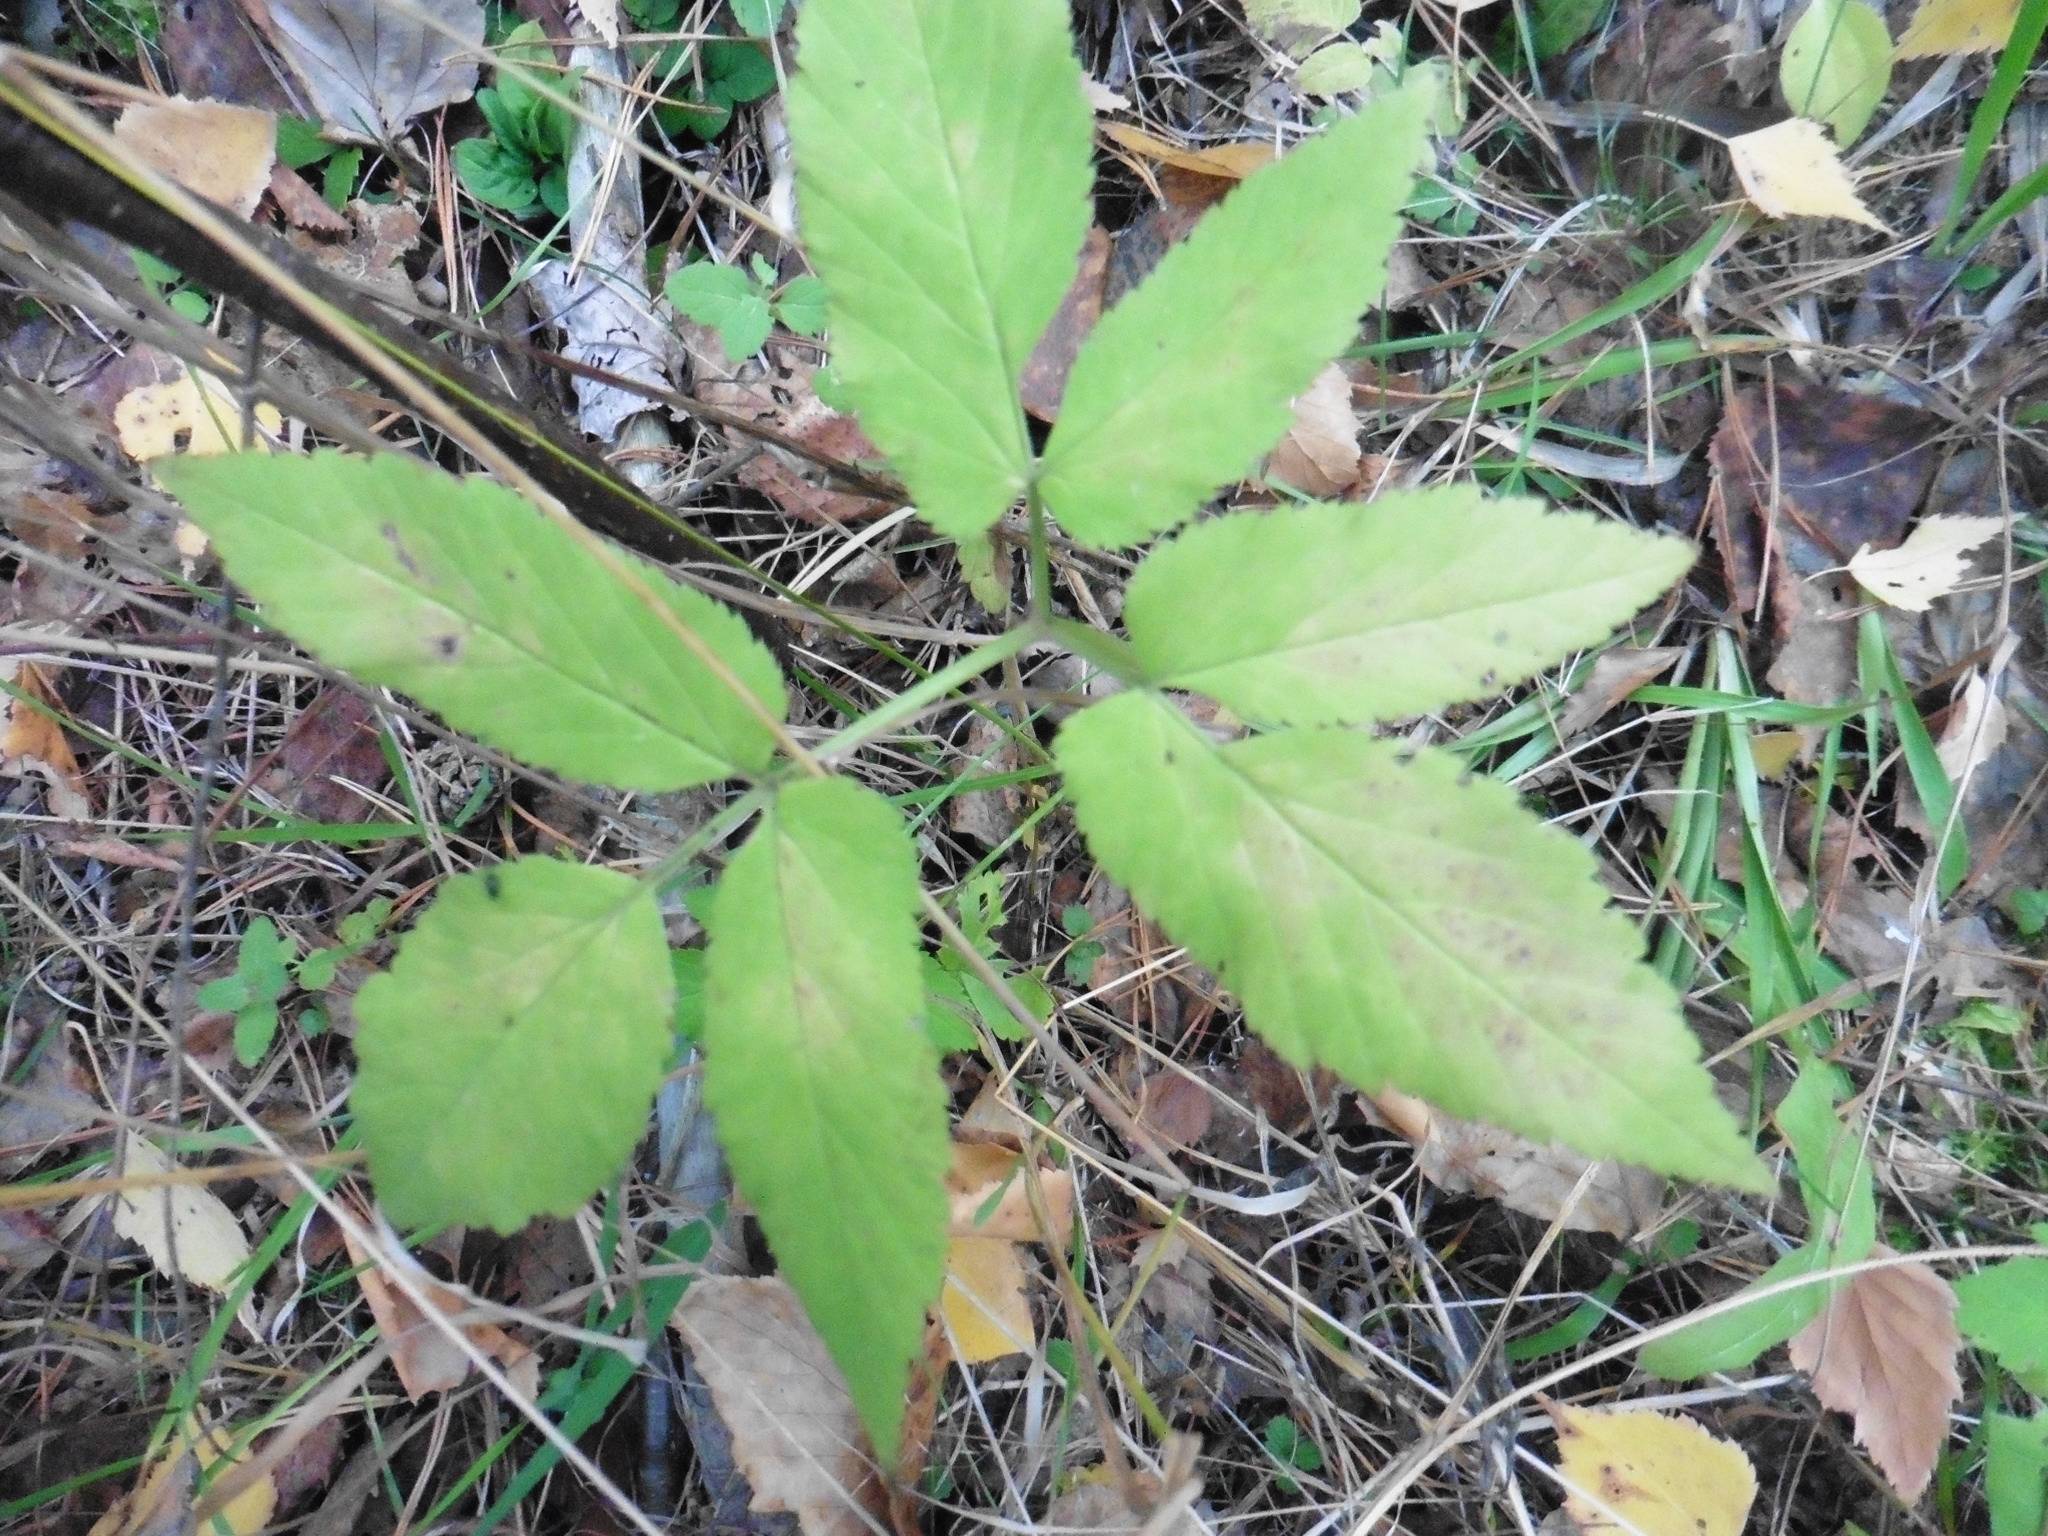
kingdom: Plantae
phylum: Tracheophyta
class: Magnoliopsida
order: Apiales
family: Apiaceae
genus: Aegopodium
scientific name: Aegopodium podagraria
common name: Ground-elder
